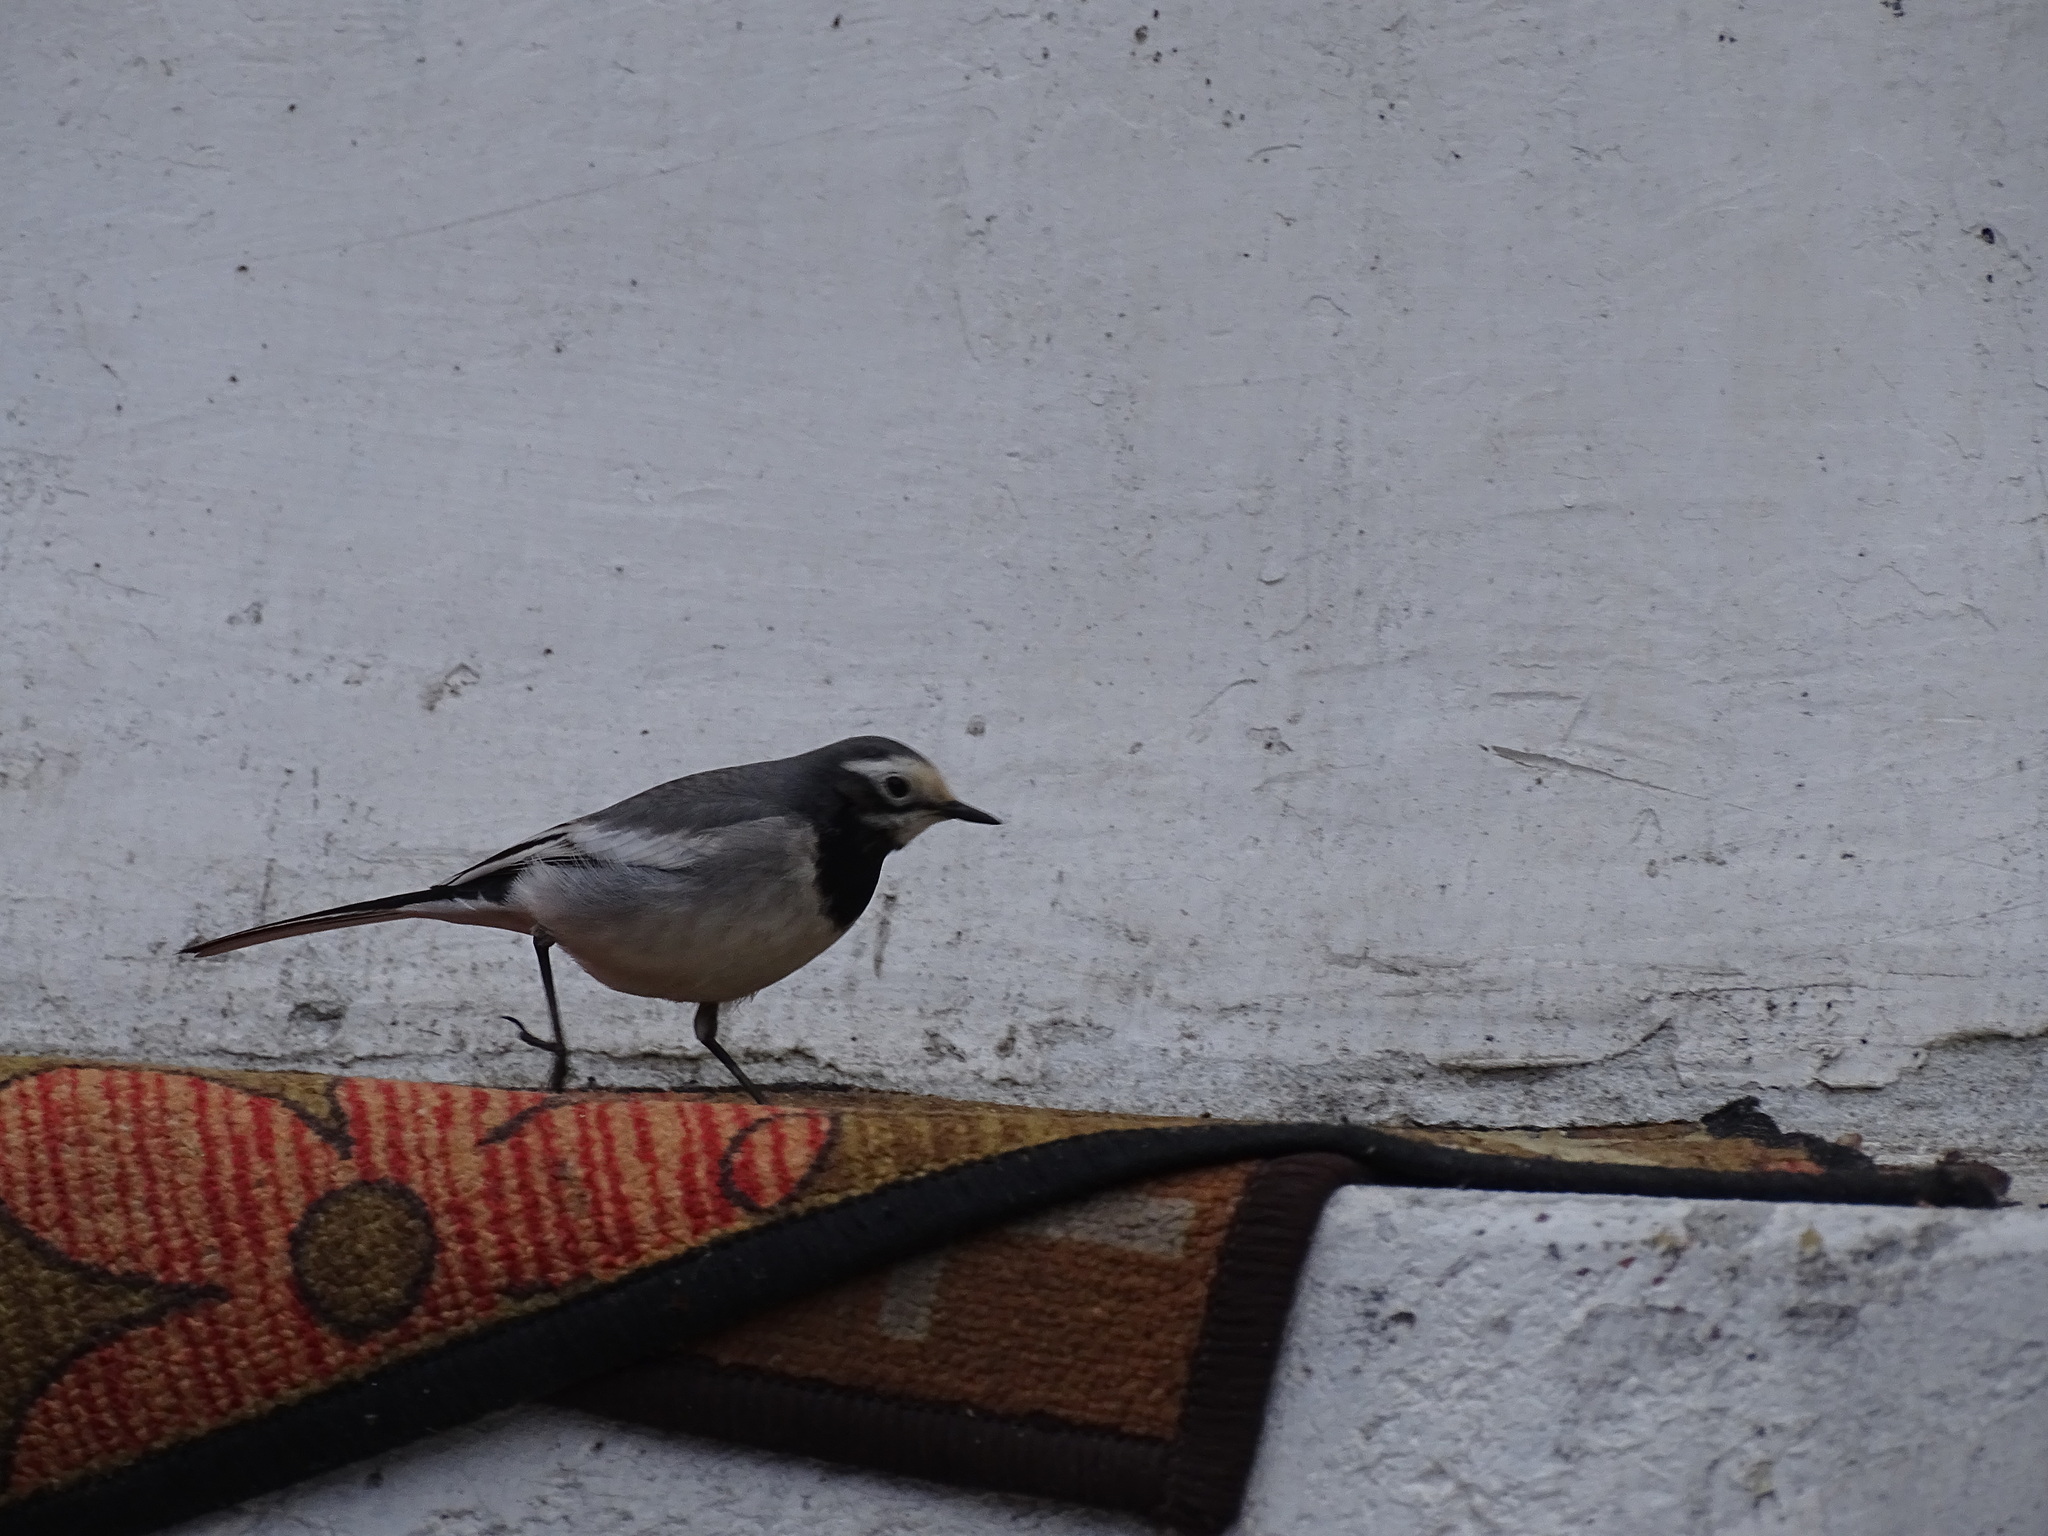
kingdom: Animalia
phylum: Chordata
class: Aves
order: Passeriformes
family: Motacillidae
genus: Motacilla
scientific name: Motacilla alba
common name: White wagtail
